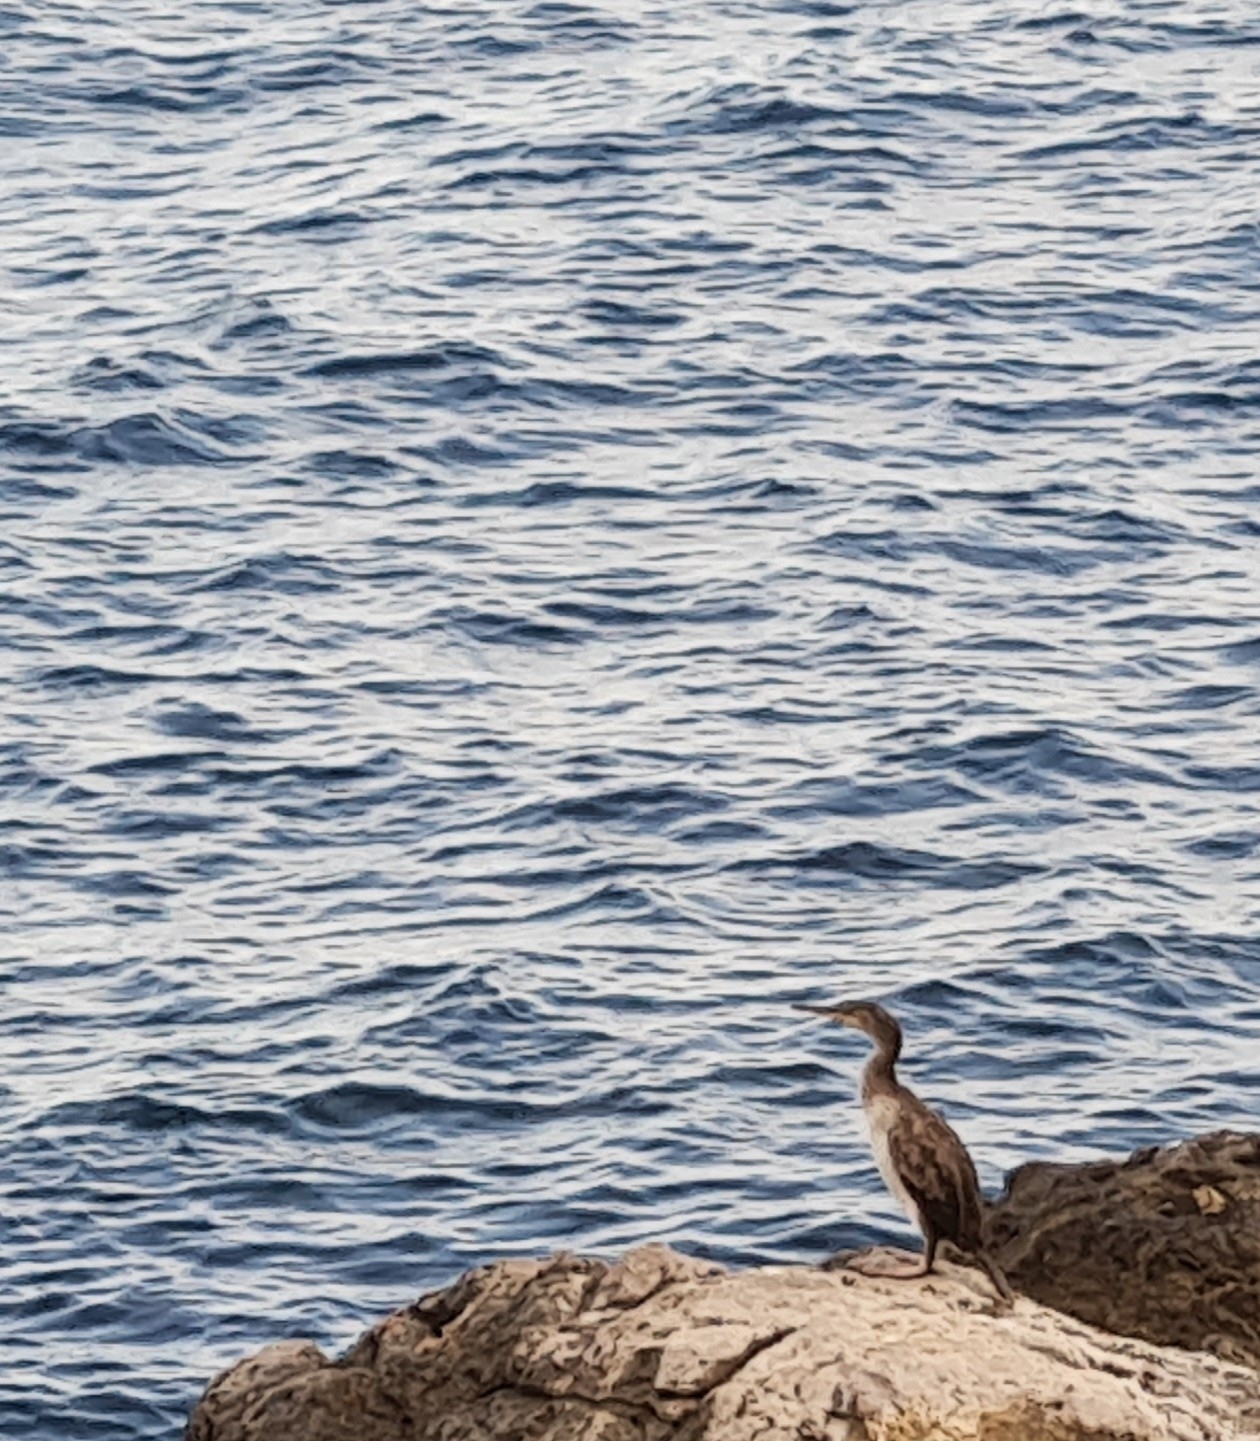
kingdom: Animalia
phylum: Chordata
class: Aves
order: Suliformes
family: Phalacrocoracidae
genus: Phalacrocorax
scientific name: Phalacrocorax aristotelis
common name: European shag
